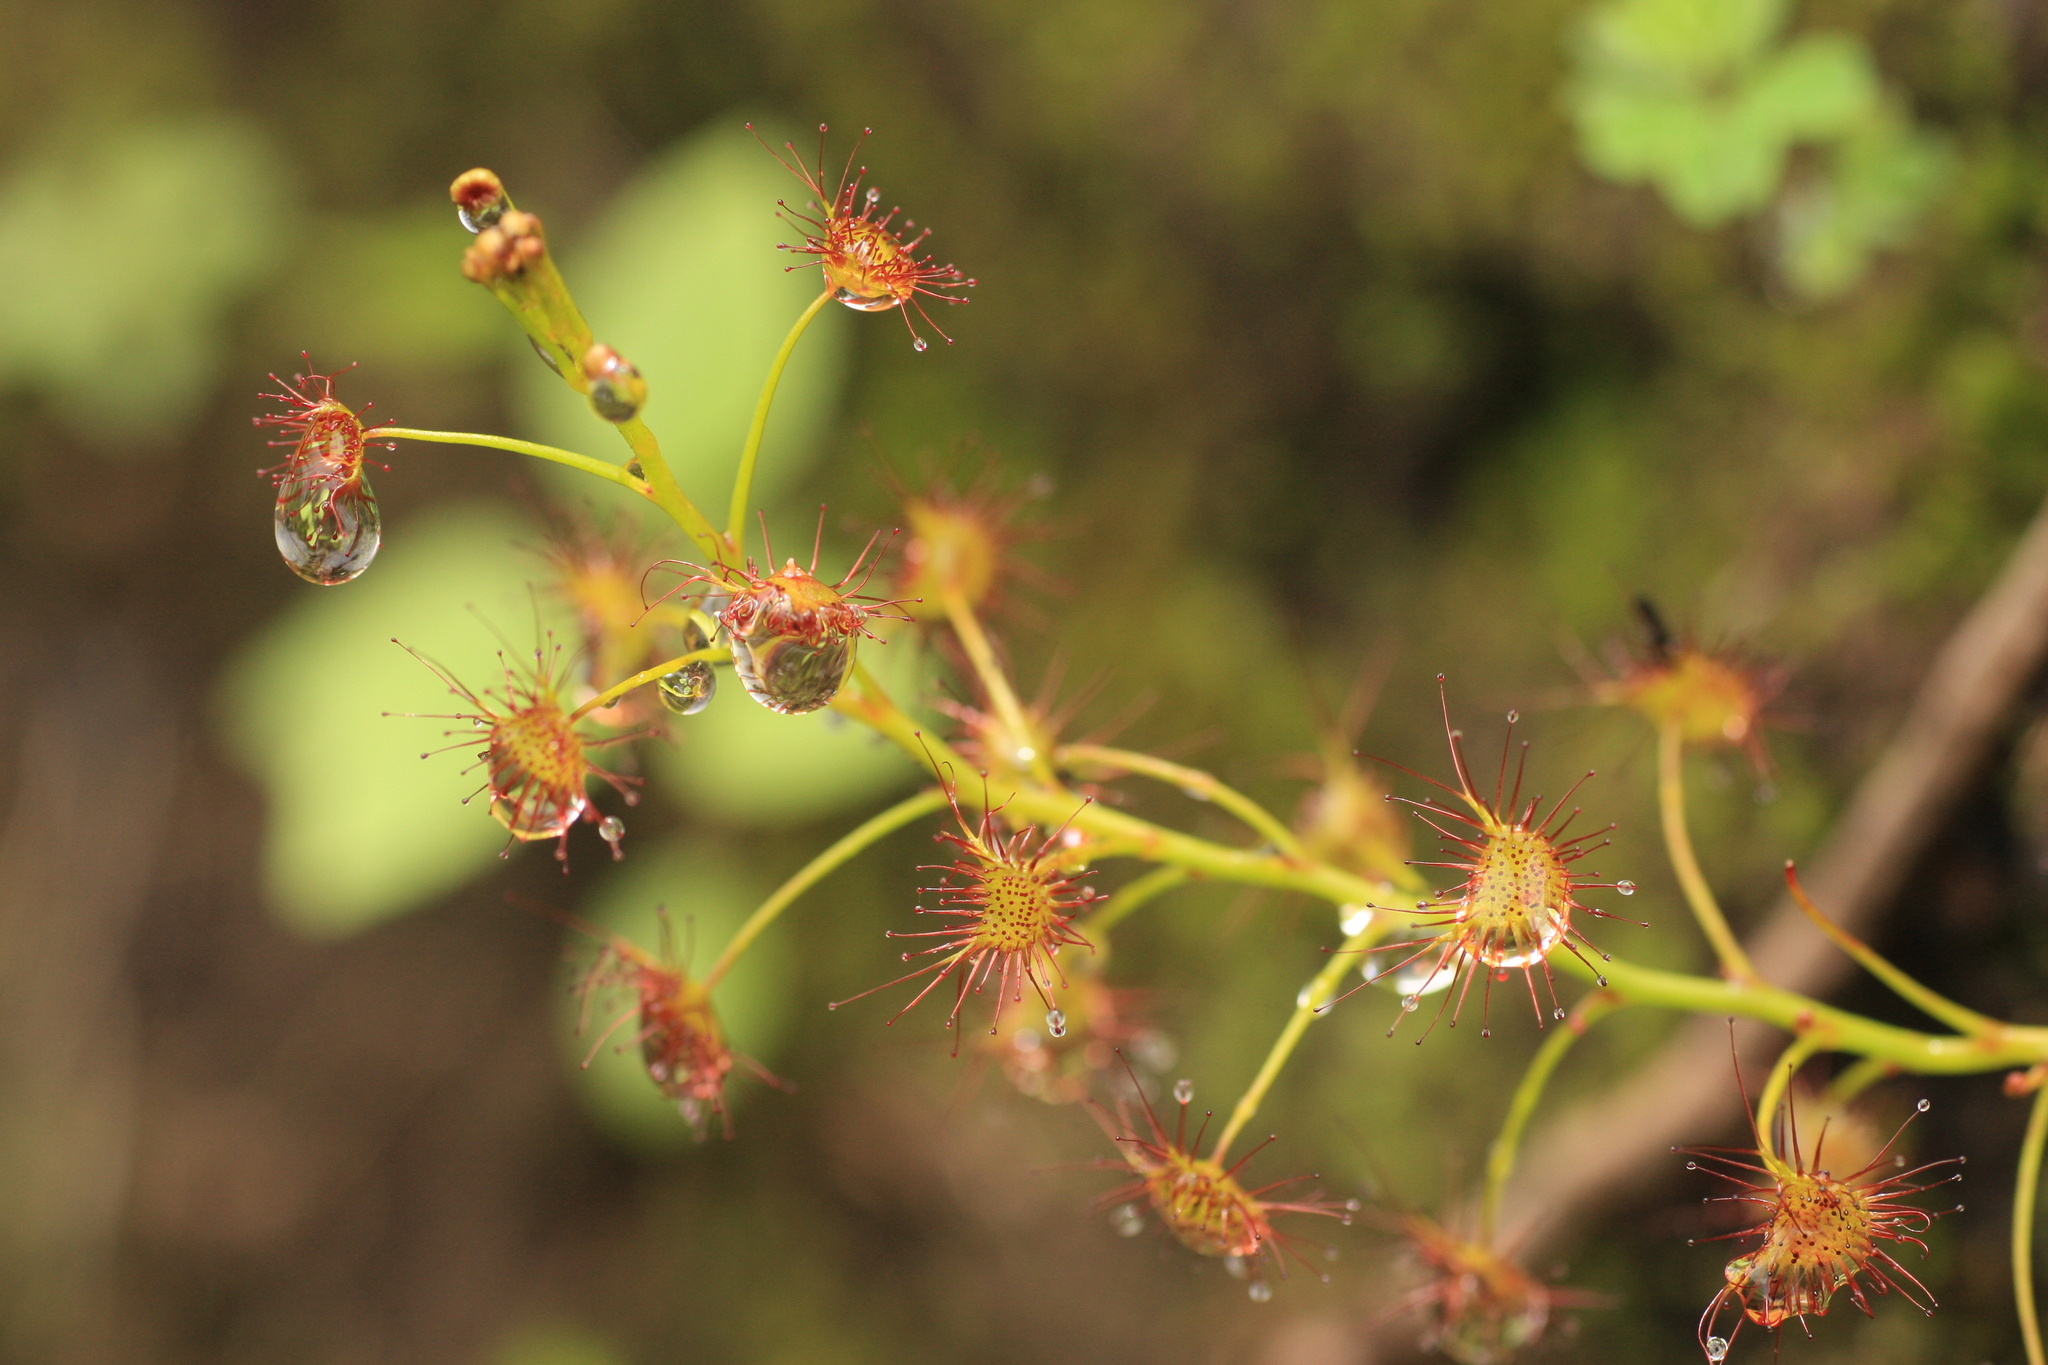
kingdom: Plantae
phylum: Tracheophyta
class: Magnoliopsida
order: Caryophyllales
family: Droseraceae
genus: Drosera
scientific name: Drosera peltata
